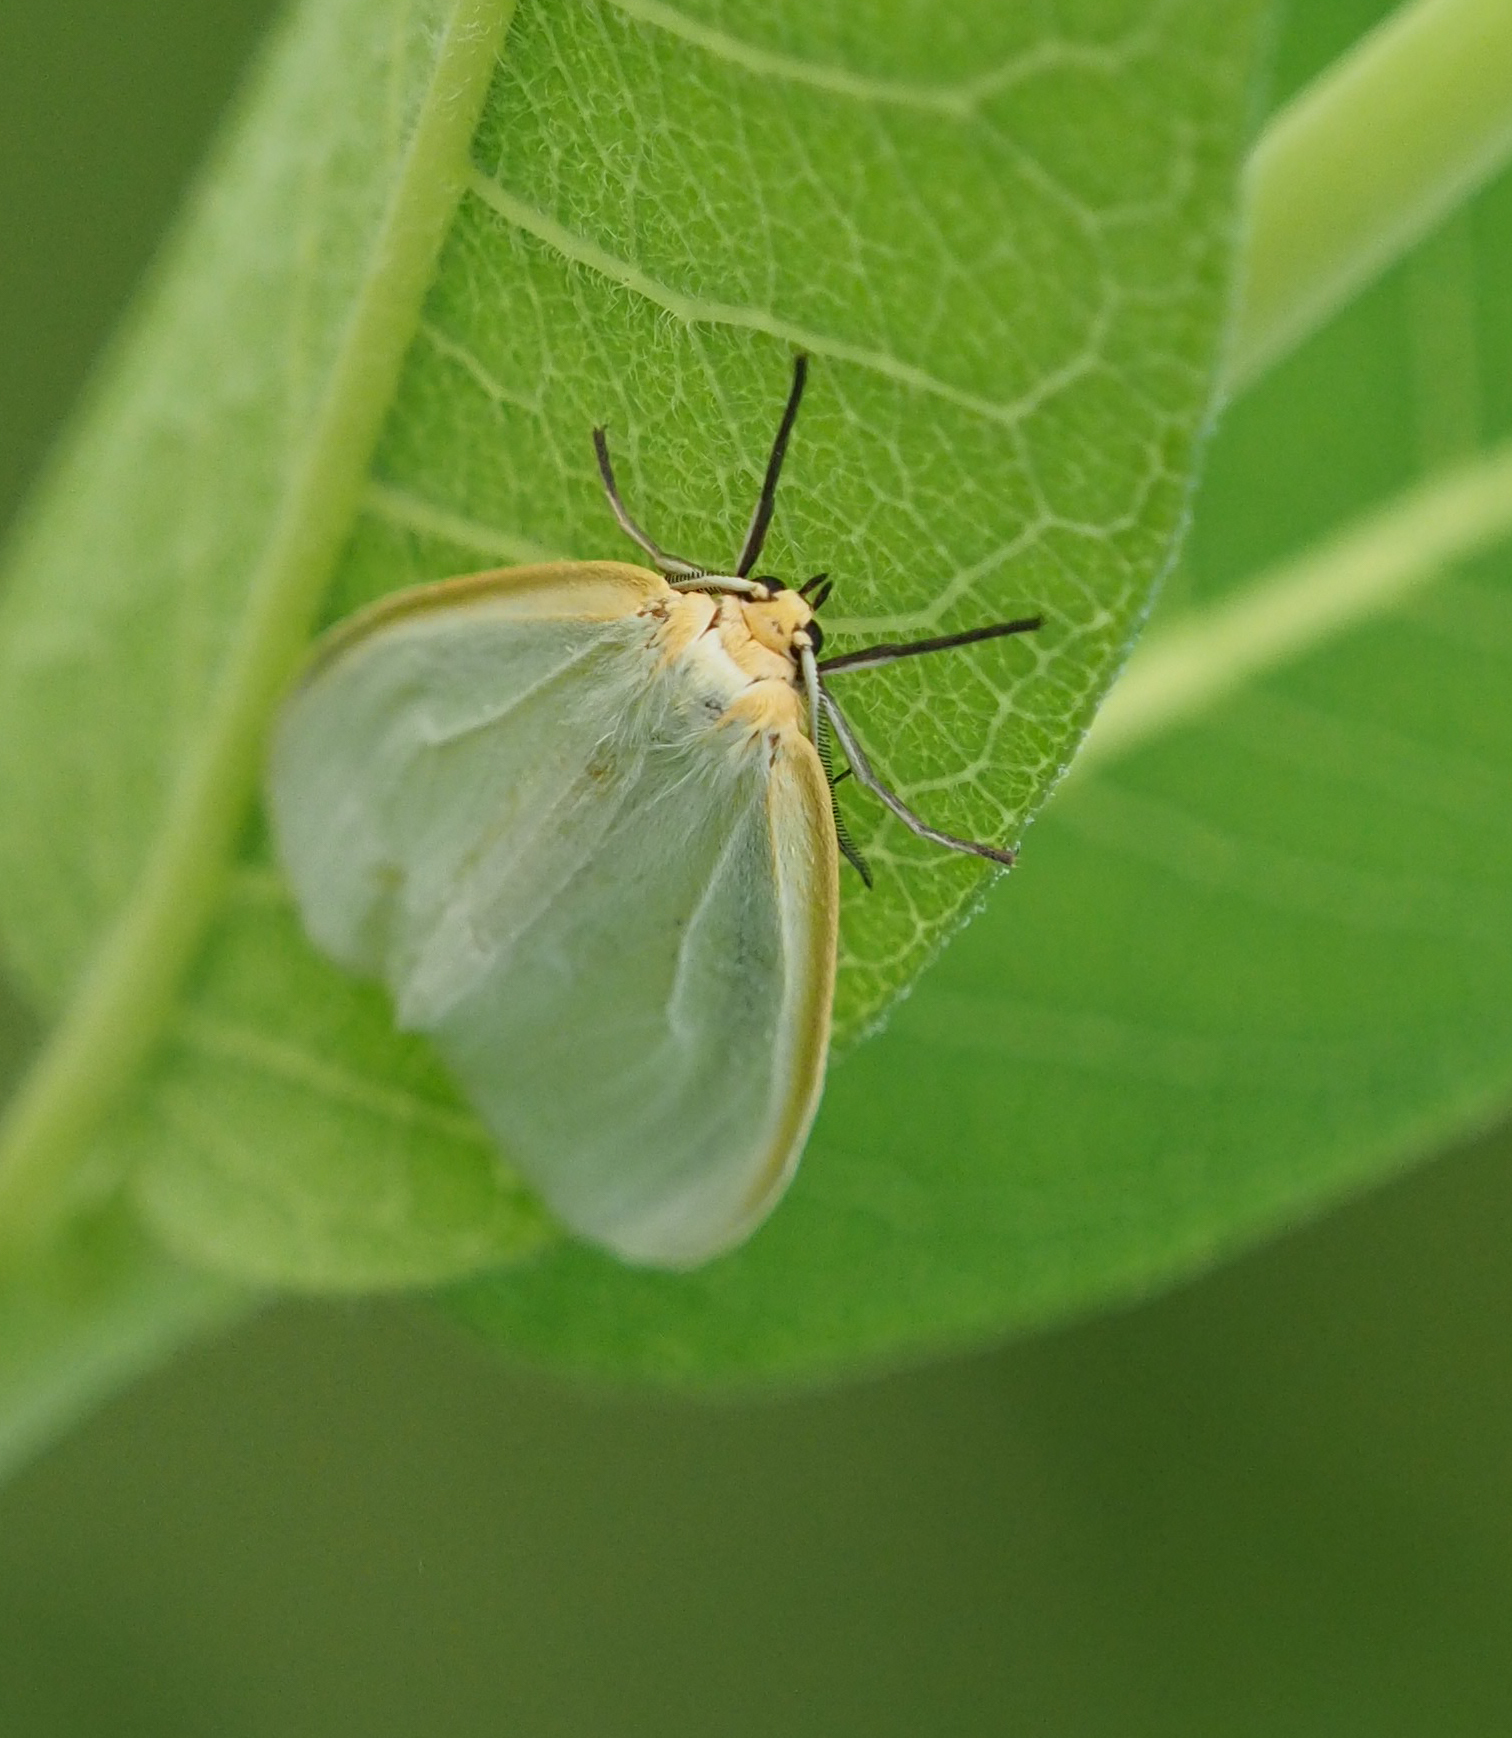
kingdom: Animalia
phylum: Arthropoda
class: Insecta
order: Lepidoptera
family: Erebidae
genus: Cycnia
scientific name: Cycnia tenera
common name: Delicate cycnia moth
